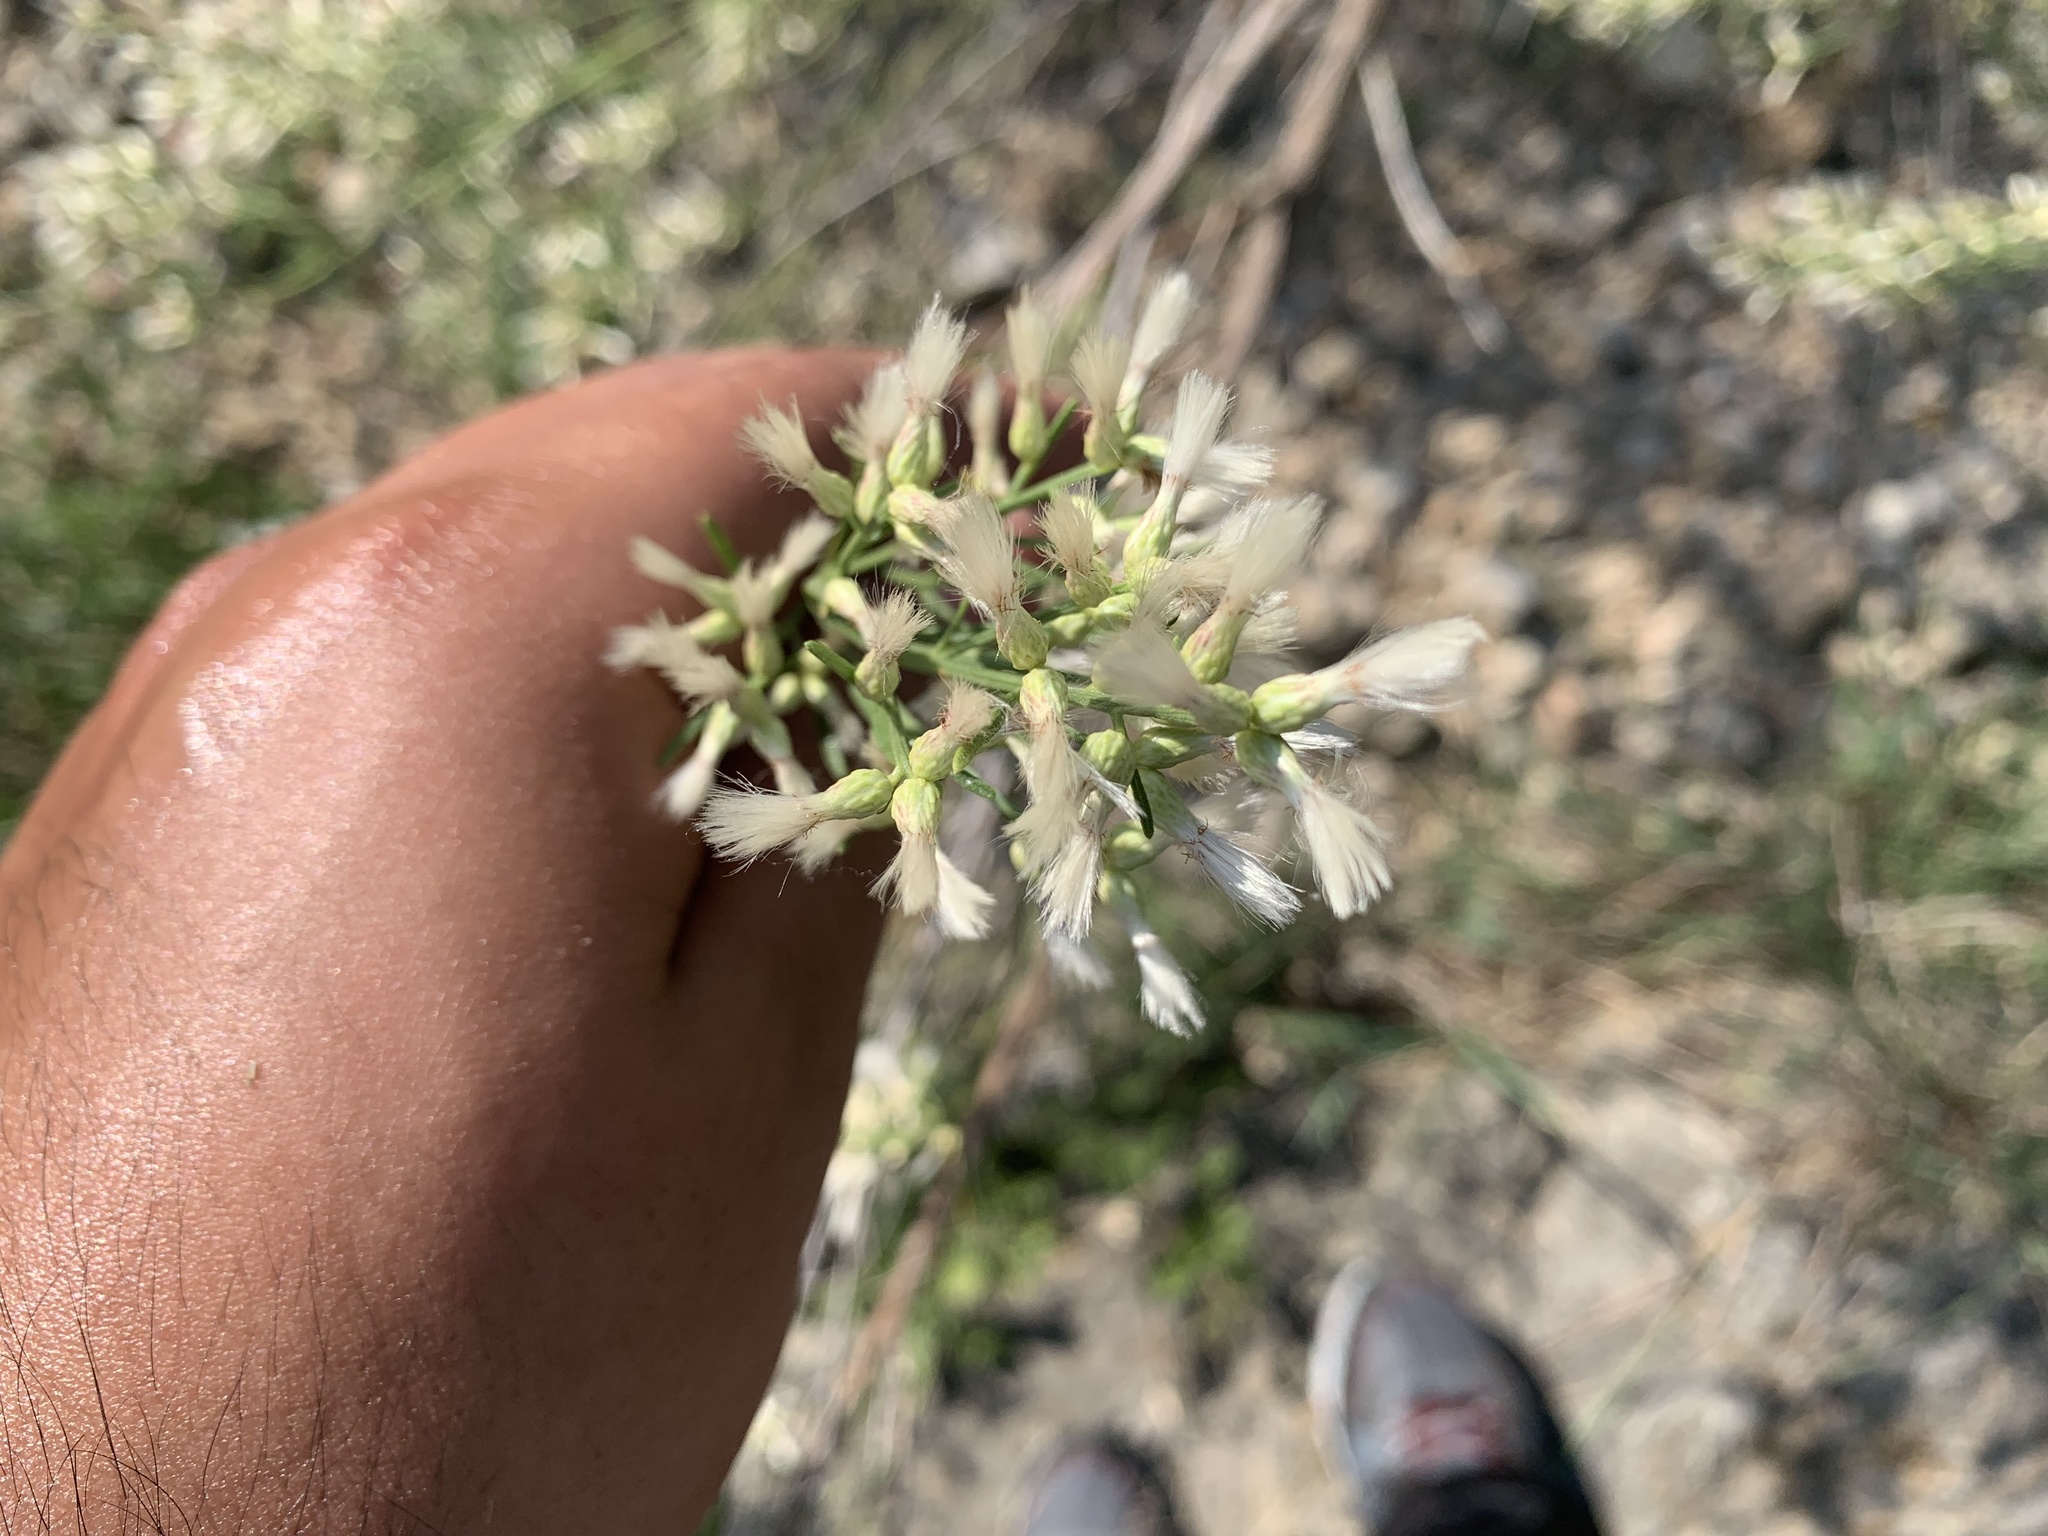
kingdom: Plantae
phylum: Tracheophyta
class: Magnoliopsida
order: Asterales
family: Asteraceae
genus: Baccharis
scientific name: Baccharis neglecta
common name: Roosevelt-weed
